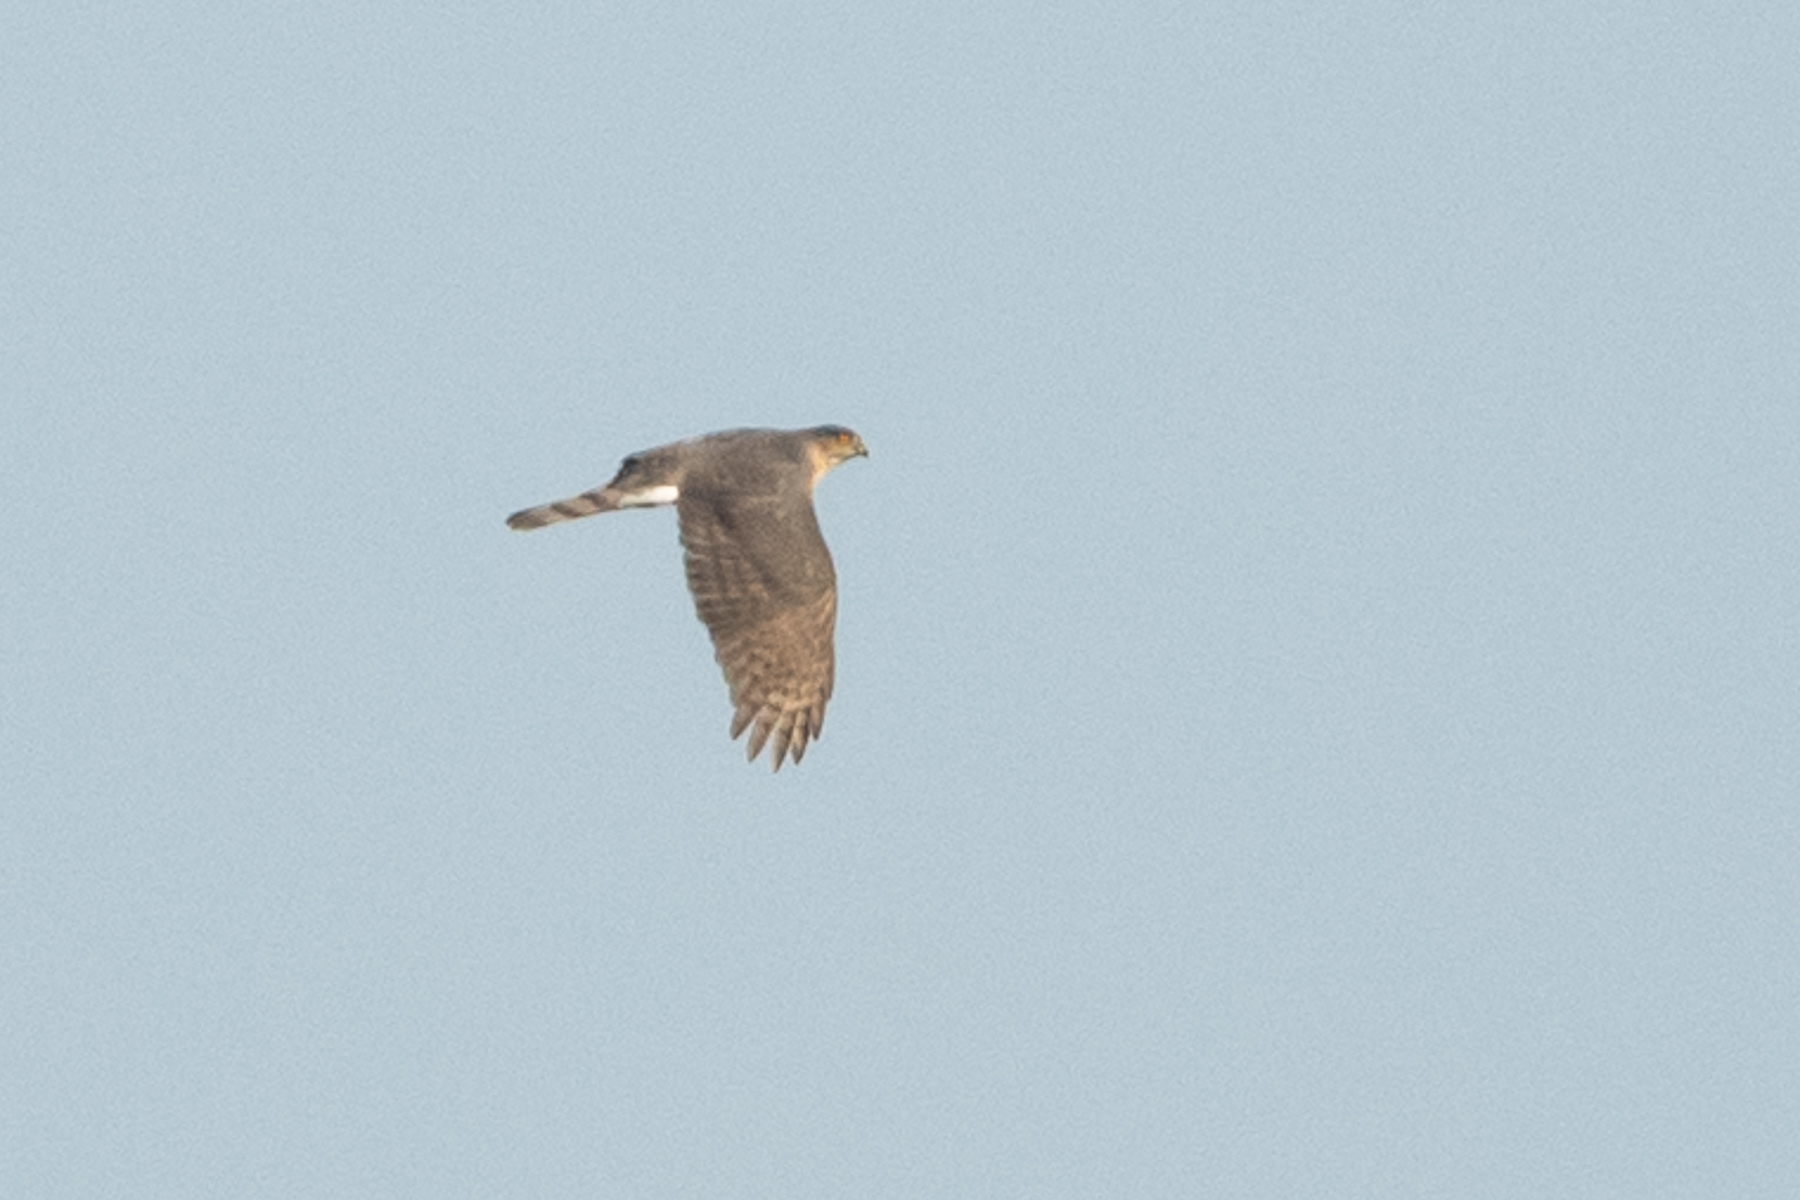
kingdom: Animalia
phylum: Chordata
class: Aves
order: Accipitriformes
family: Accipitridae
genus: Accipiter
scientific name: Accipiter cooperii
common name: Cooper's hawk
